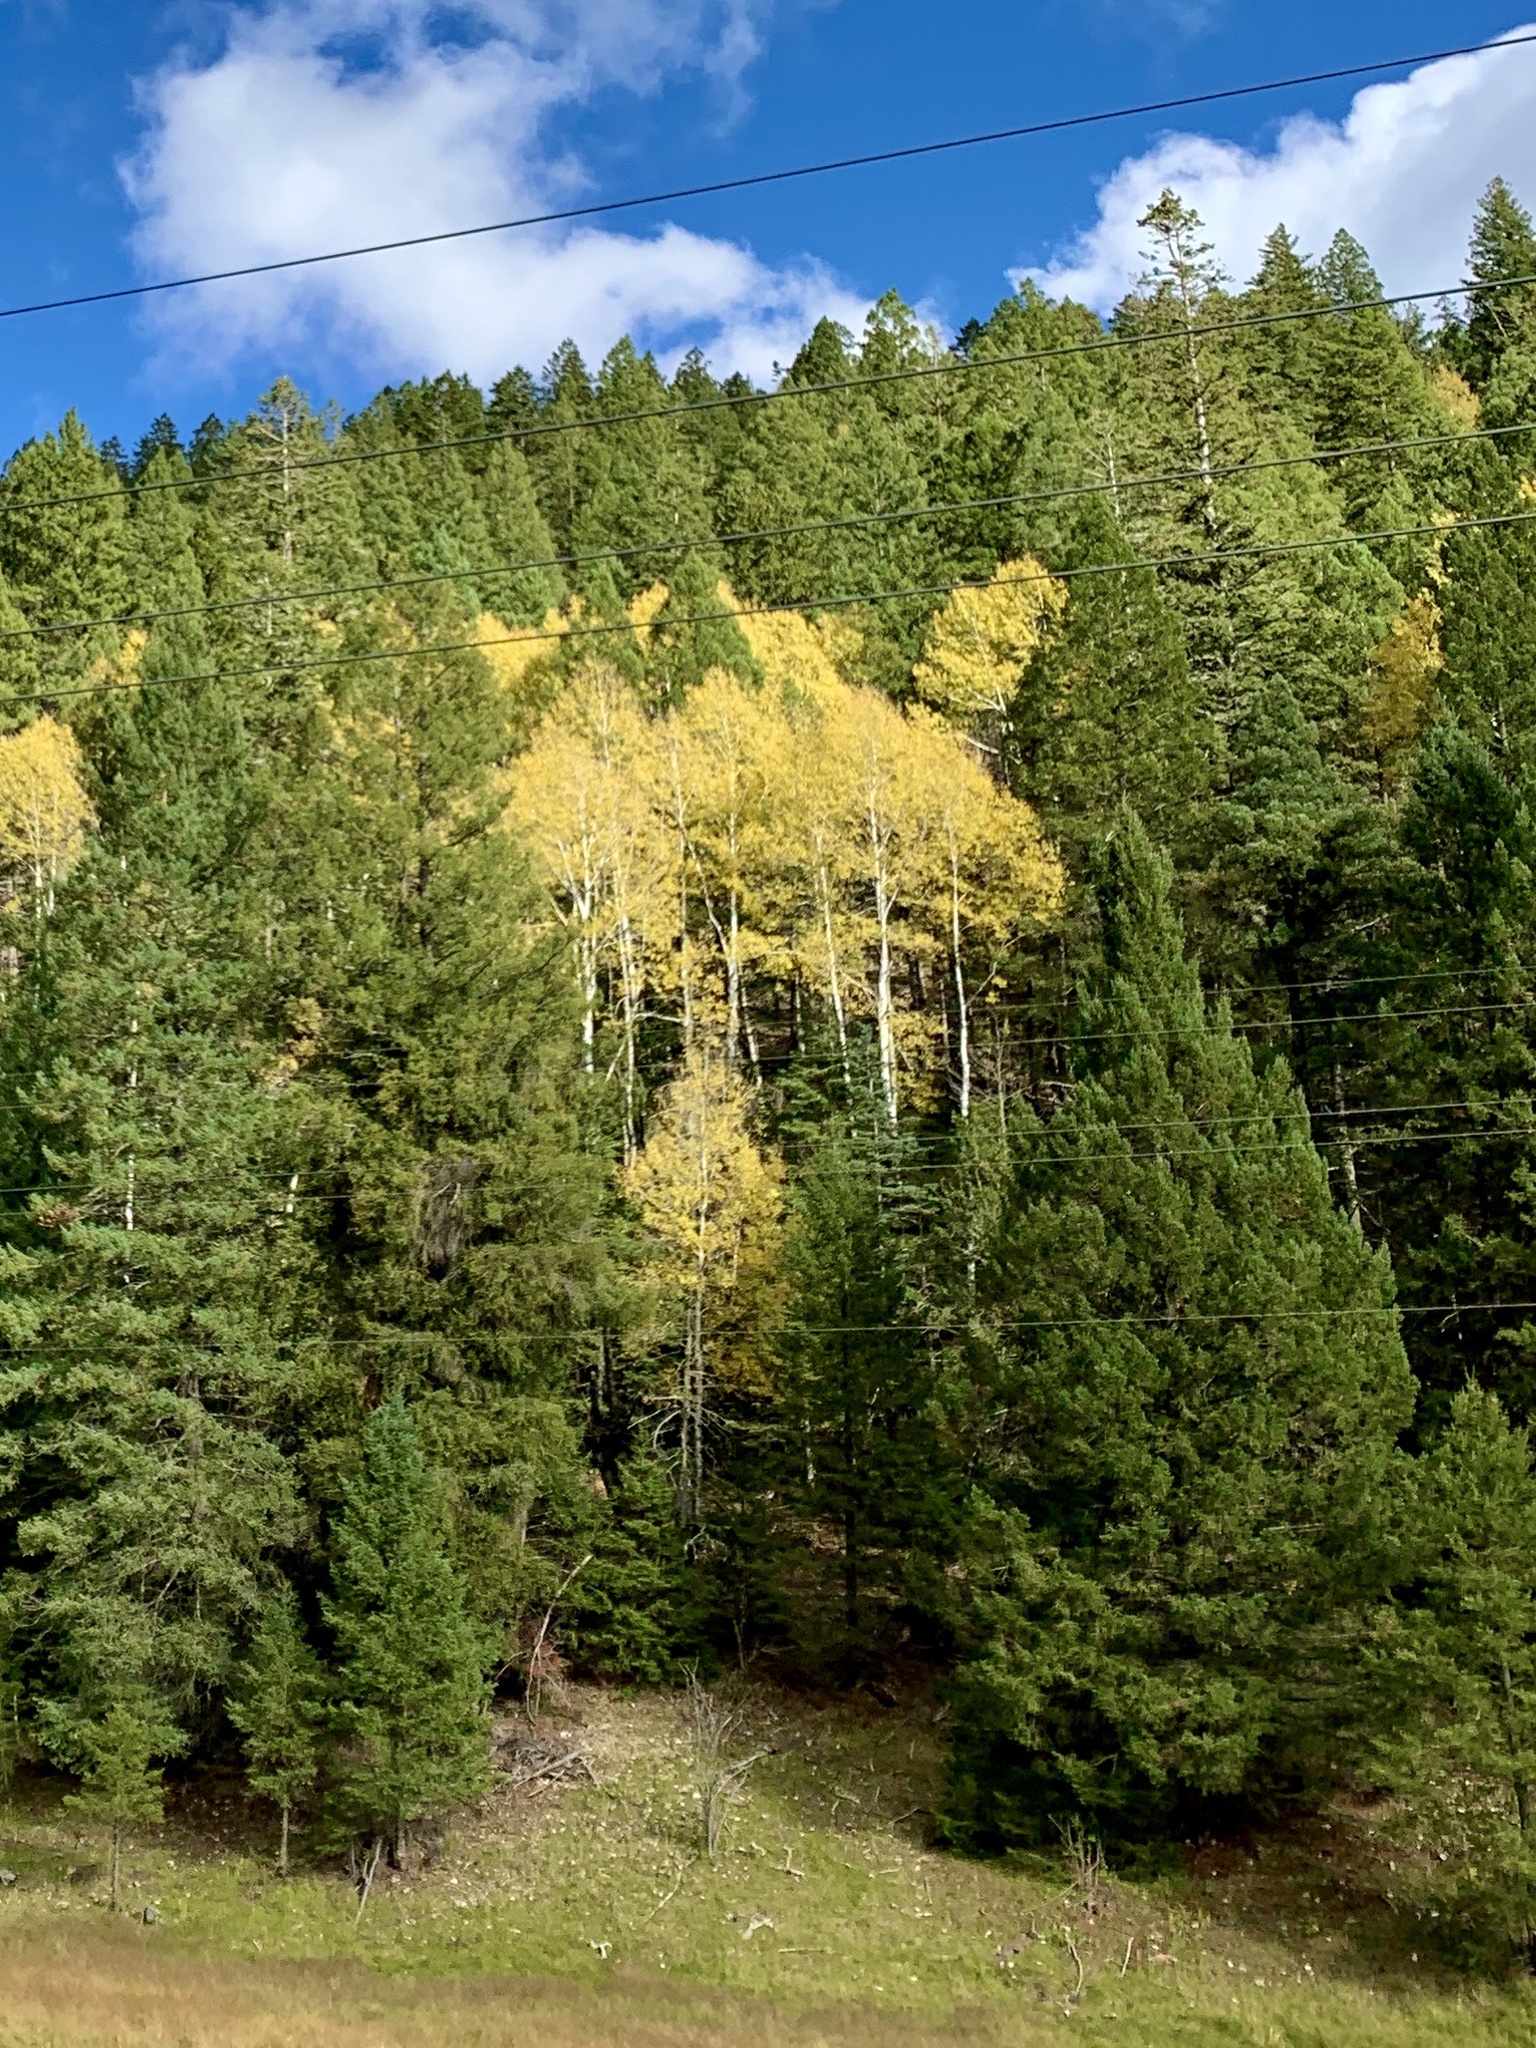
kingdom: Plantae
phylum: Tracheophyta
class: Magnoliopsida
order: Malpighiales
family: Salicaceae
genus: Populus
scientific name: Populus tremuloides
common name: Quaking aspen
